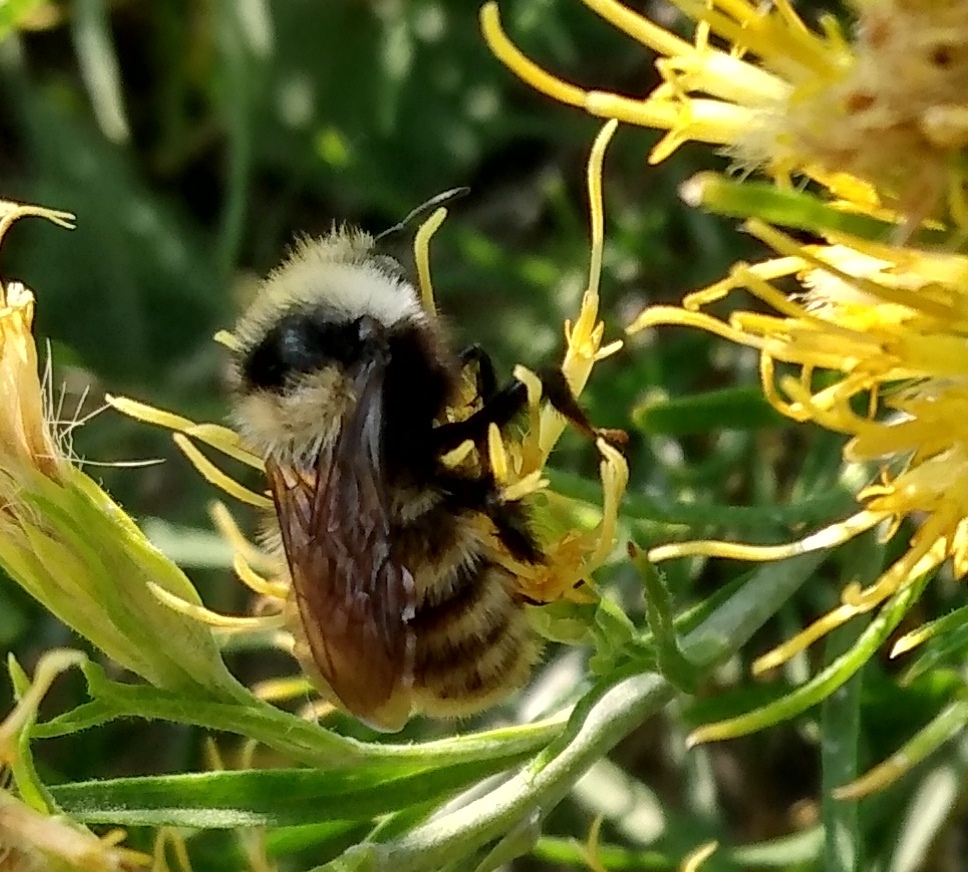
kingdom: Animalia
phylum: Arthropoda
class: Insecta
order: Hymenoptera
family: Apidae
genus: Bombus
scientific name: Bombus appositus
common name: White-shouldered bumble bee
